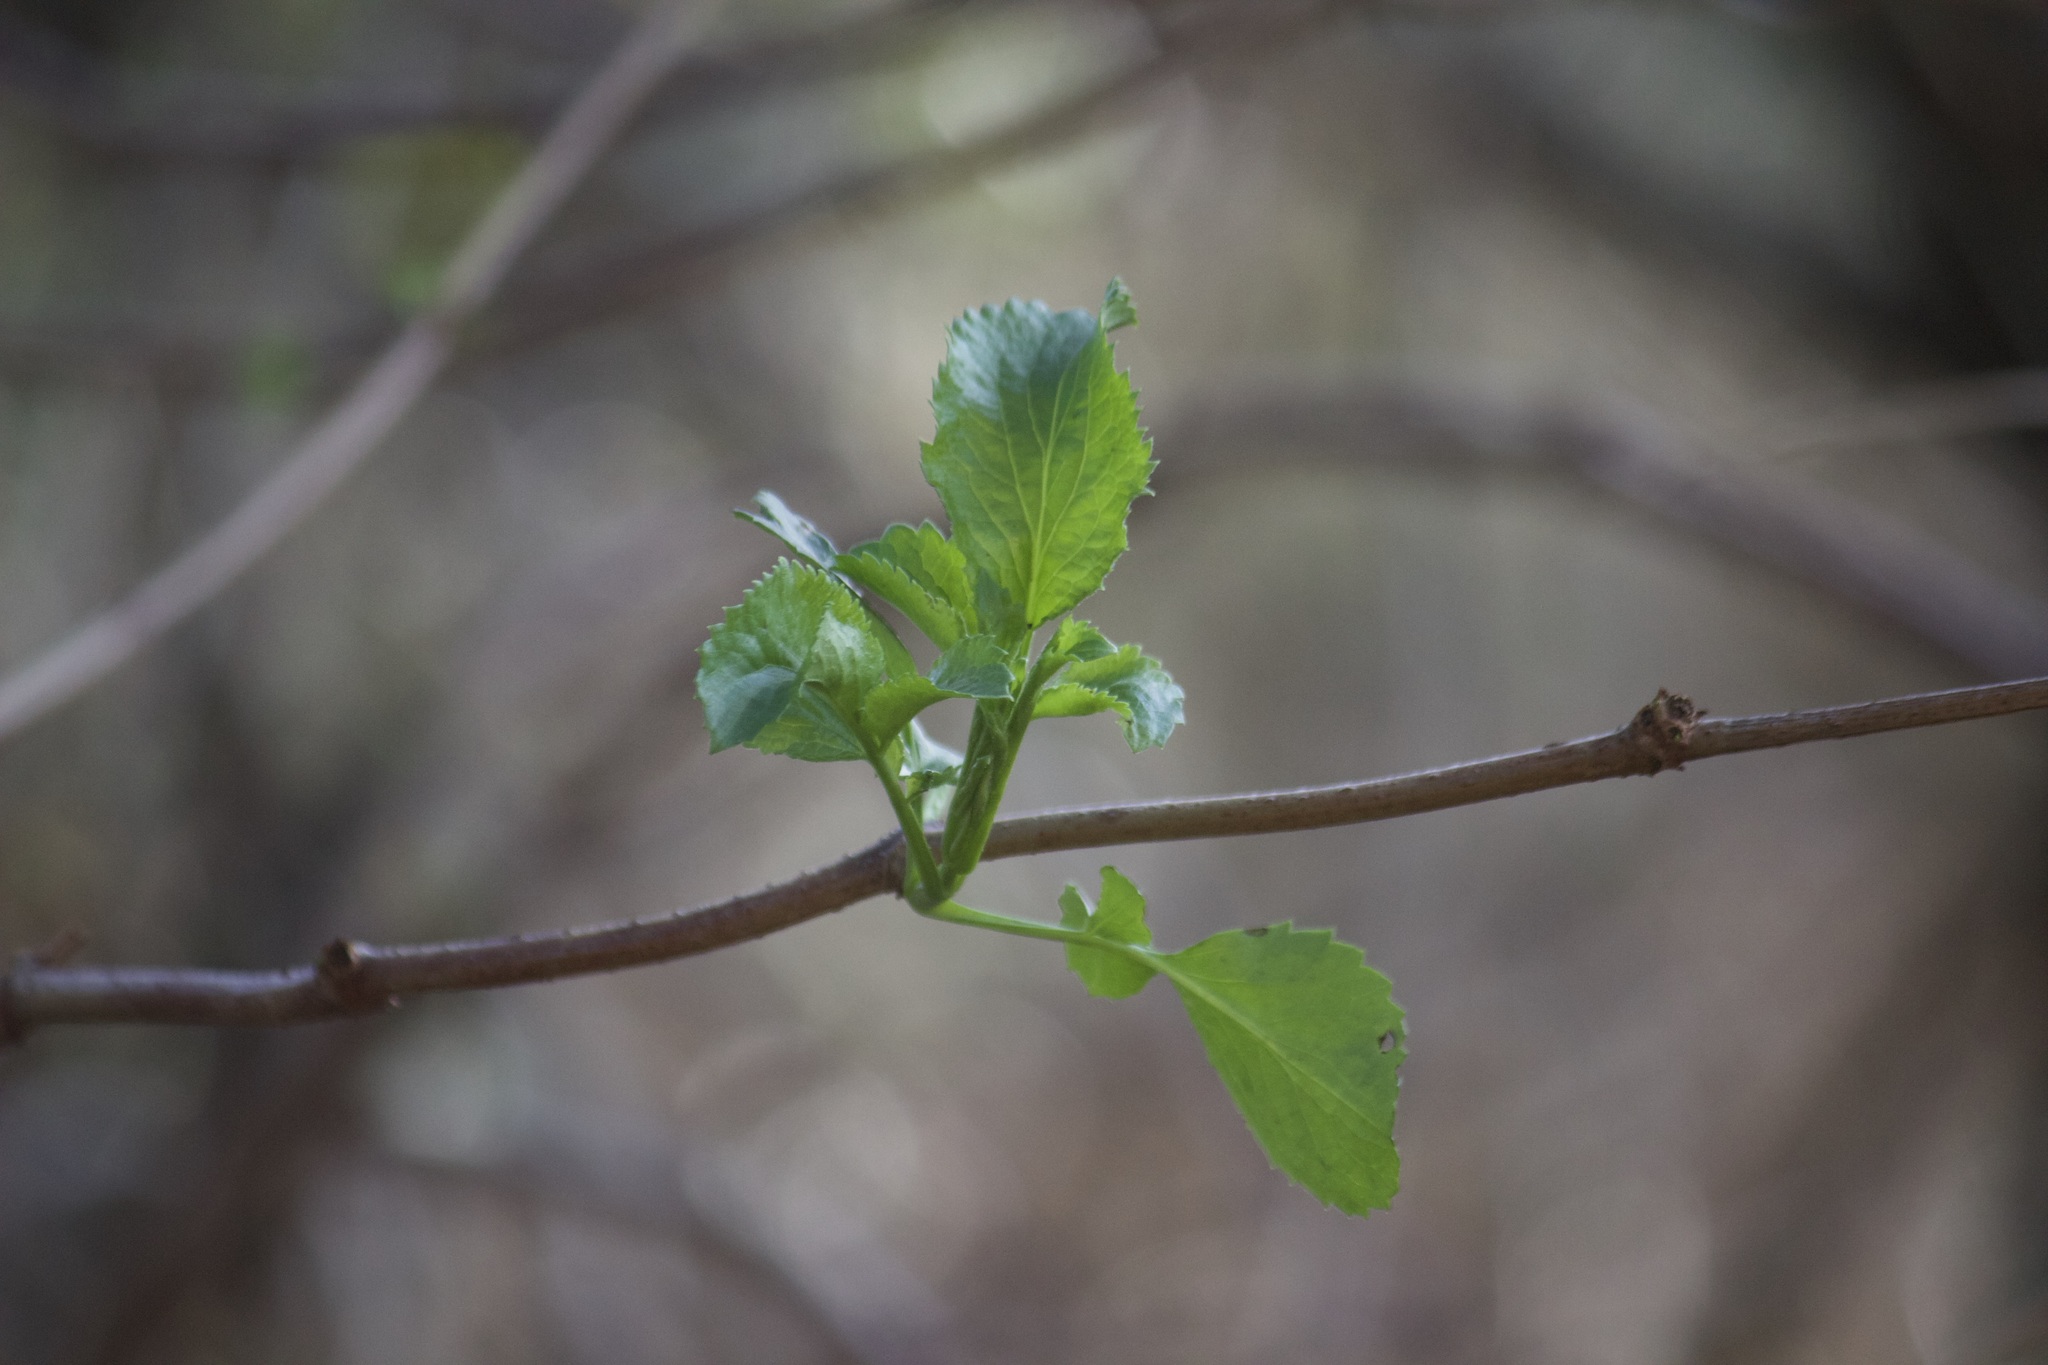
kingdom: Plantae
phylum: Tracheophyta
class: Magnoliopsida
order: Dipsacales
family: Viburnaceae
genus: Sambucus
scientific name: Sambucus cerulea
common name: Blue elder
